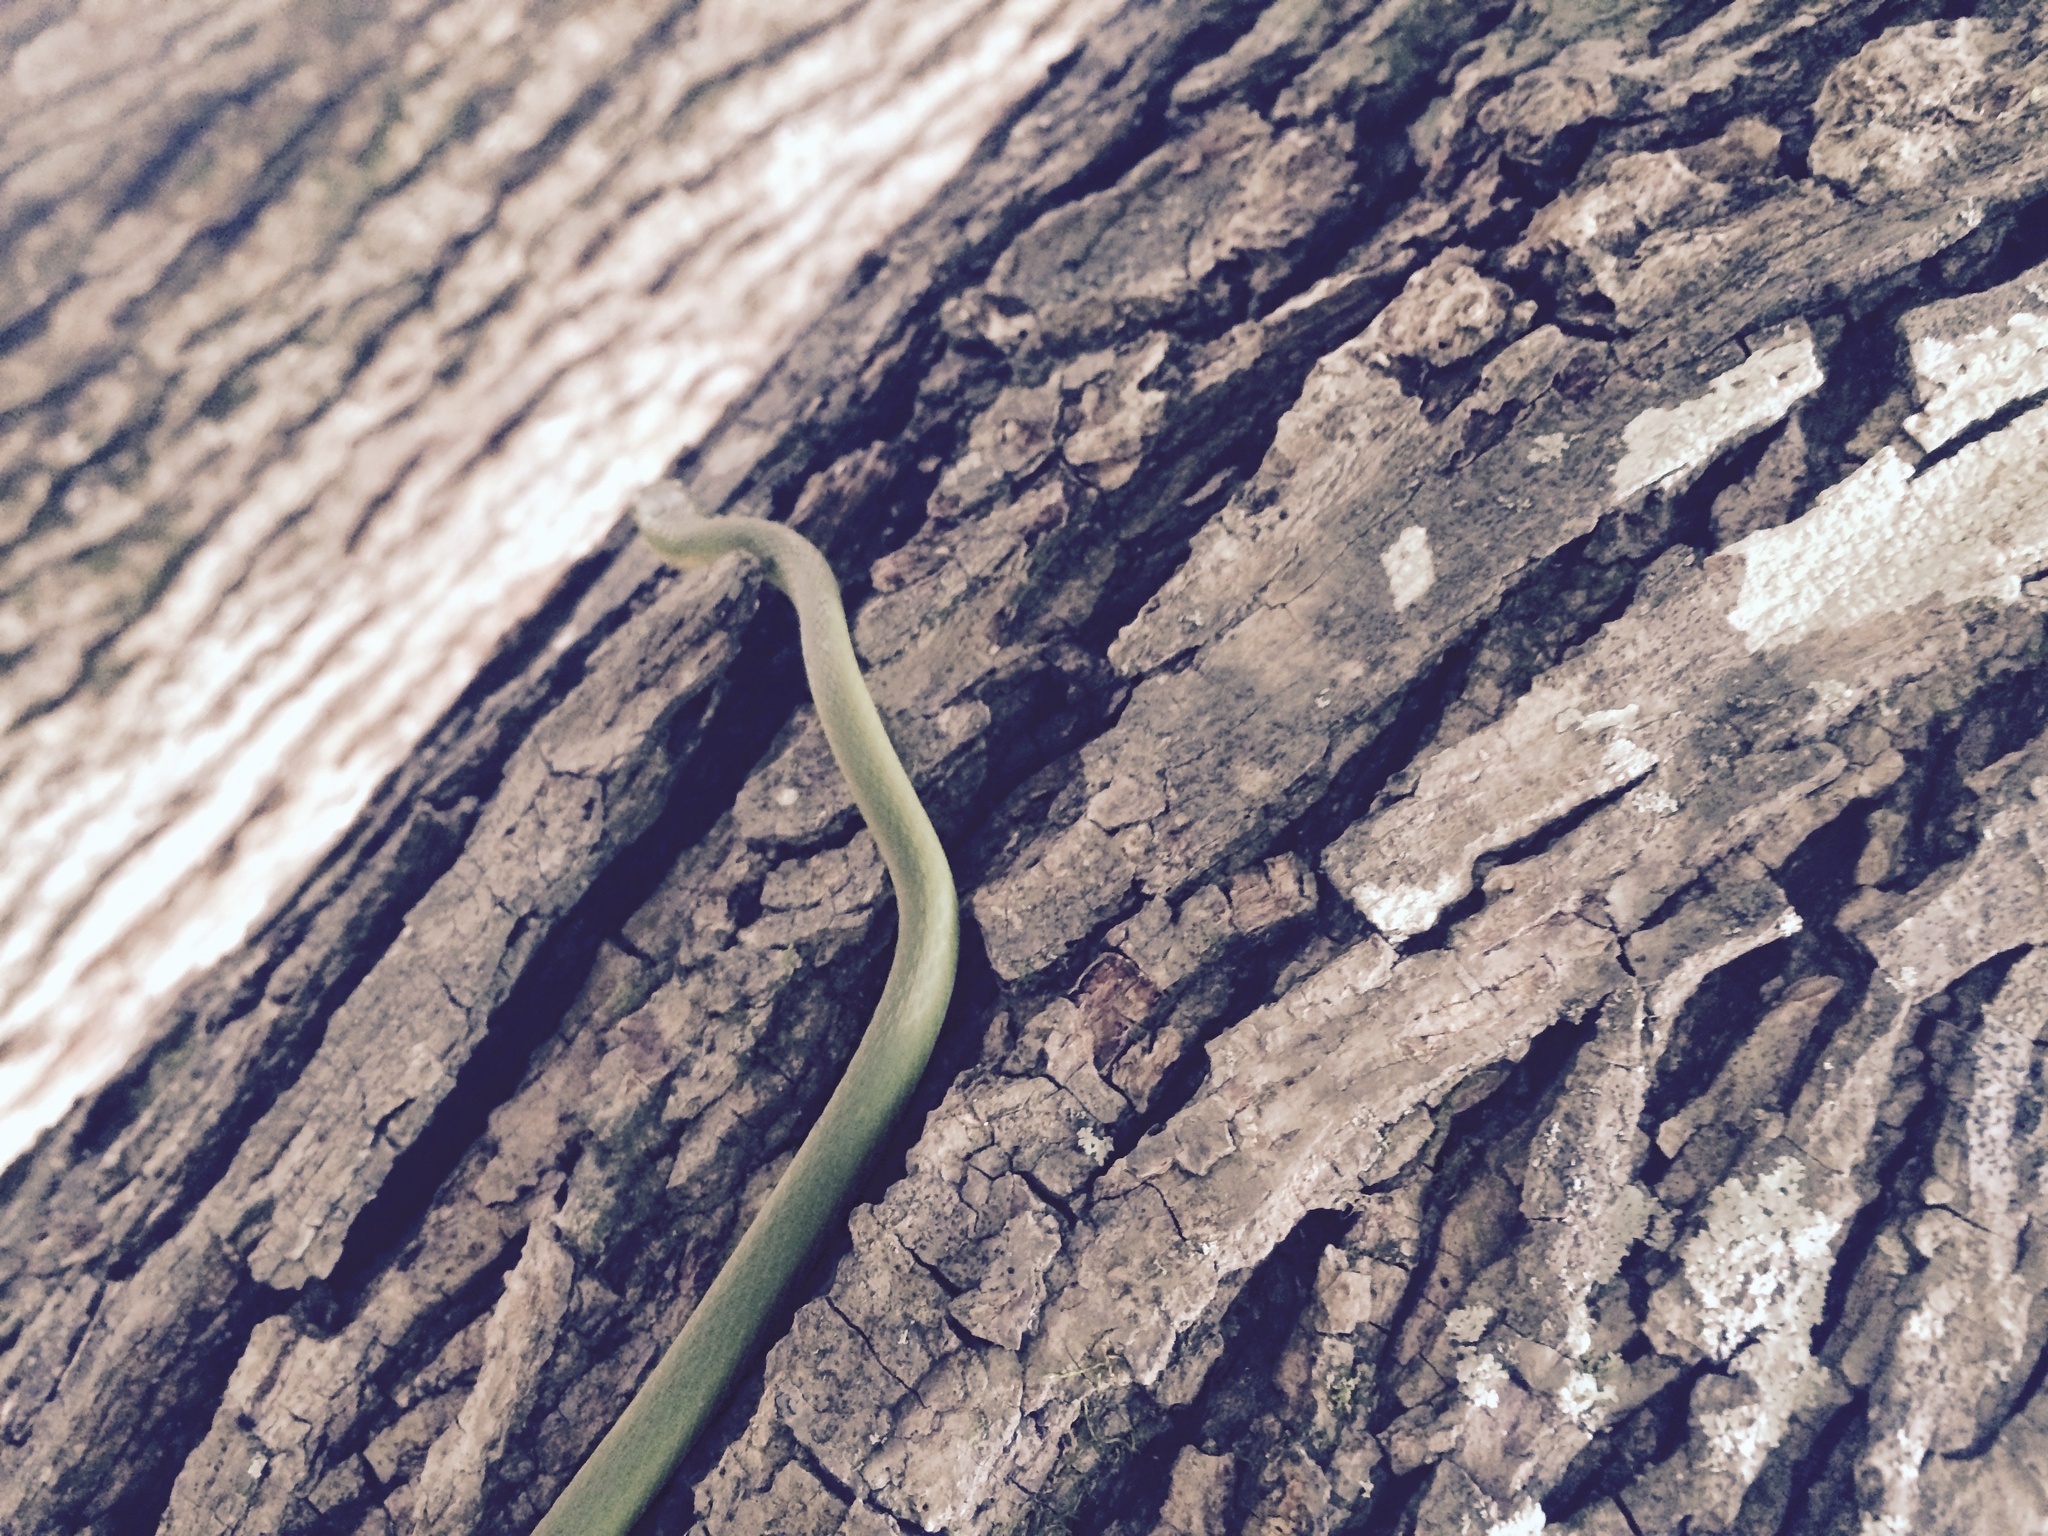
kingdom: Animalia
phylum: Chordata
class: Squamata
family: Colubridae
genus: Opheodrys
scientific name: Opheodrys aestivus
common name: Rough greensnake
